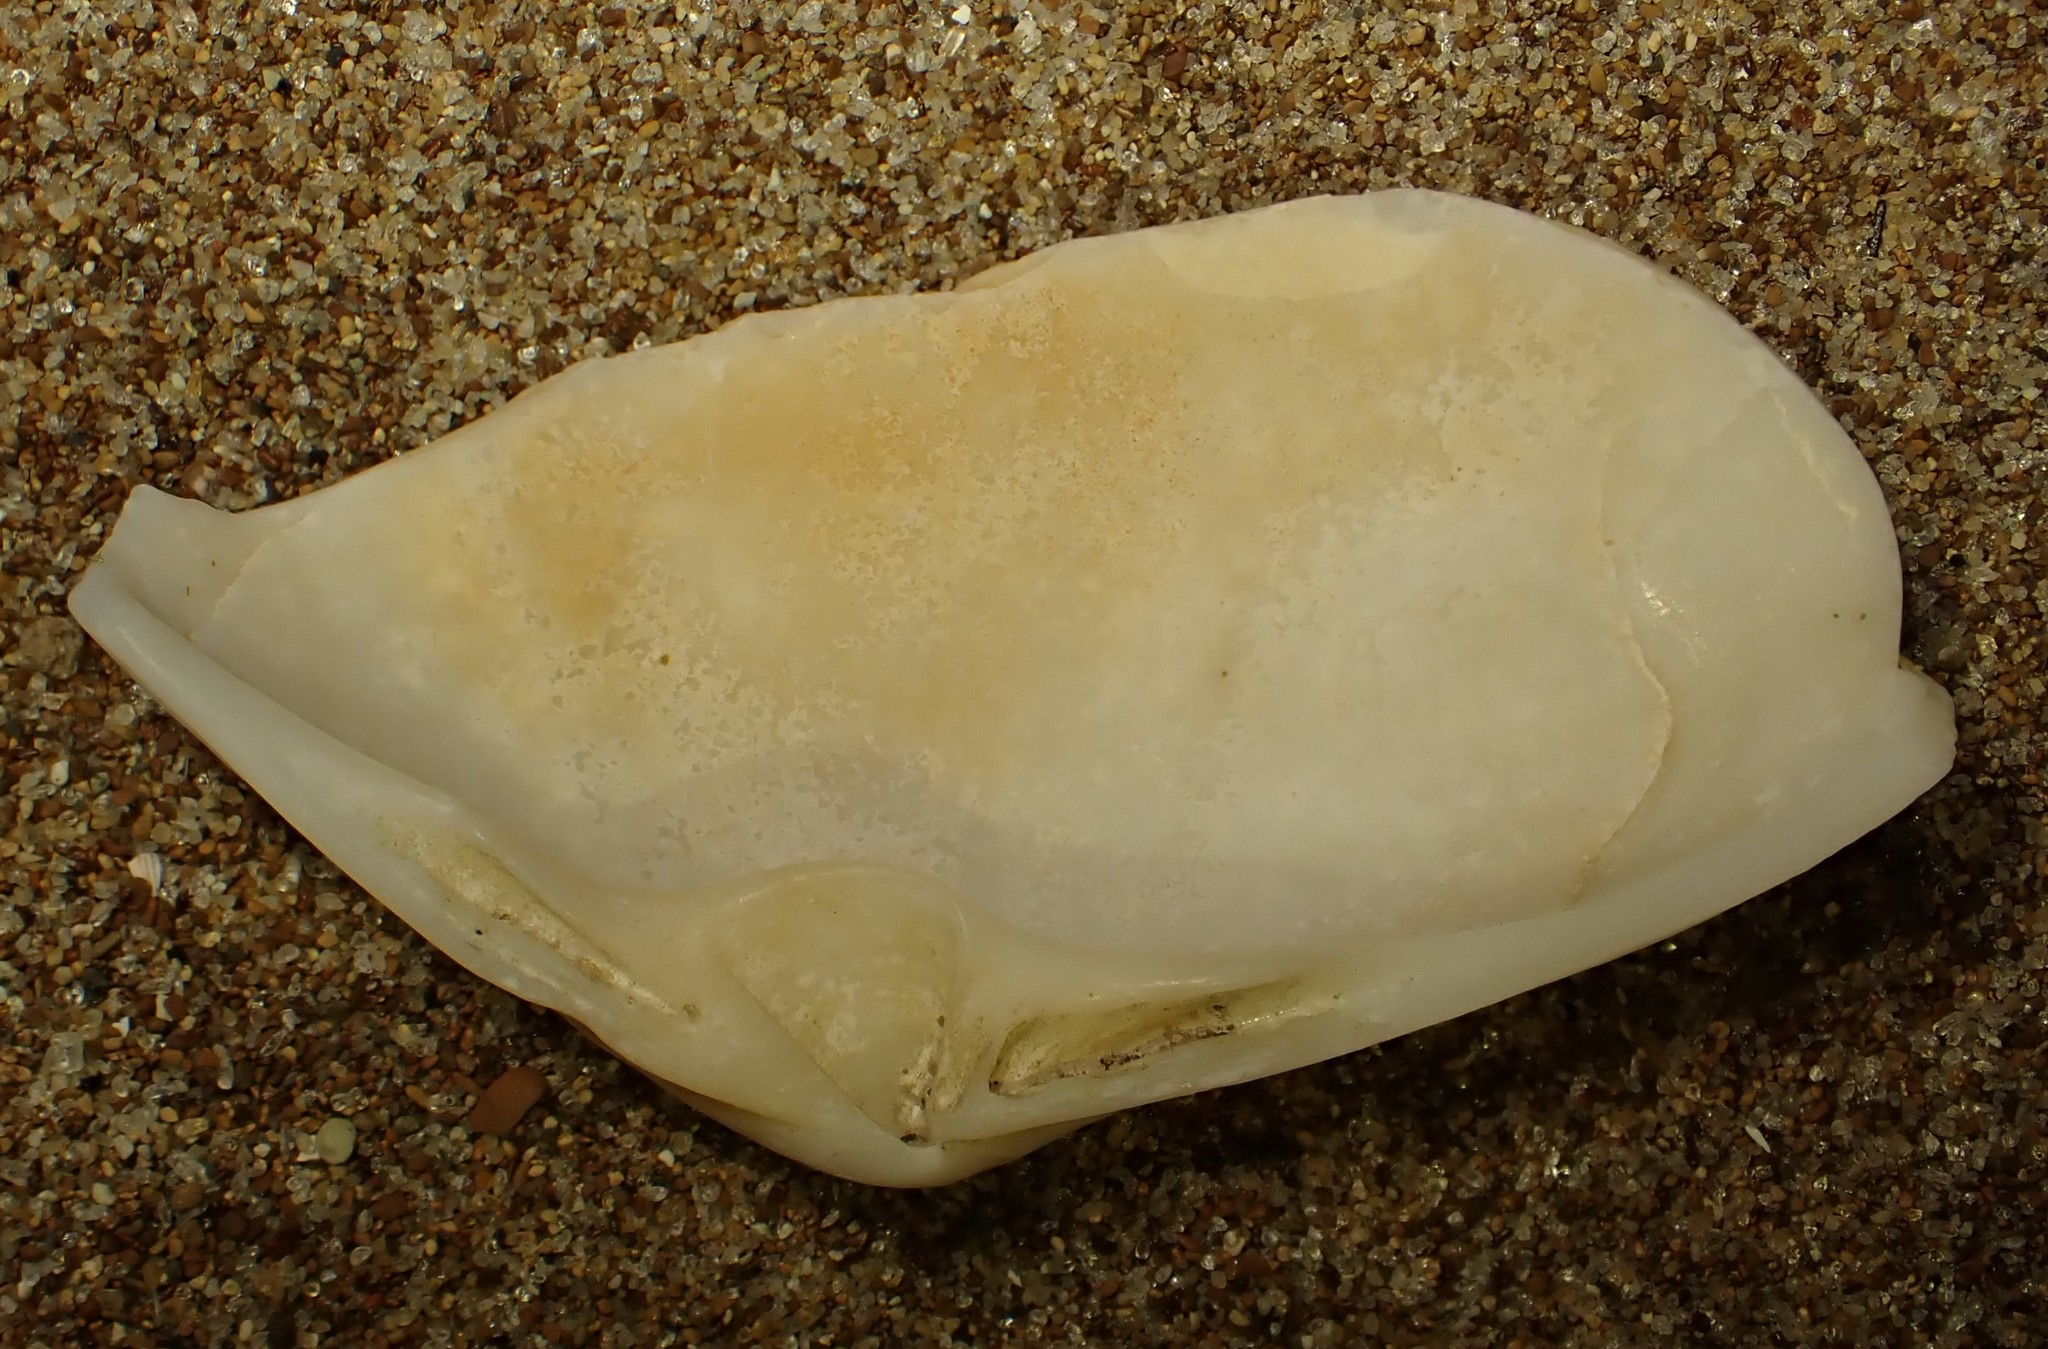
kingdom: Animalia
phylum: Mollusca
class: Bivalvia
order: Venerida
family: Mactridae
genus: Oxyperas
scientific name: Oxyperas elongatum
